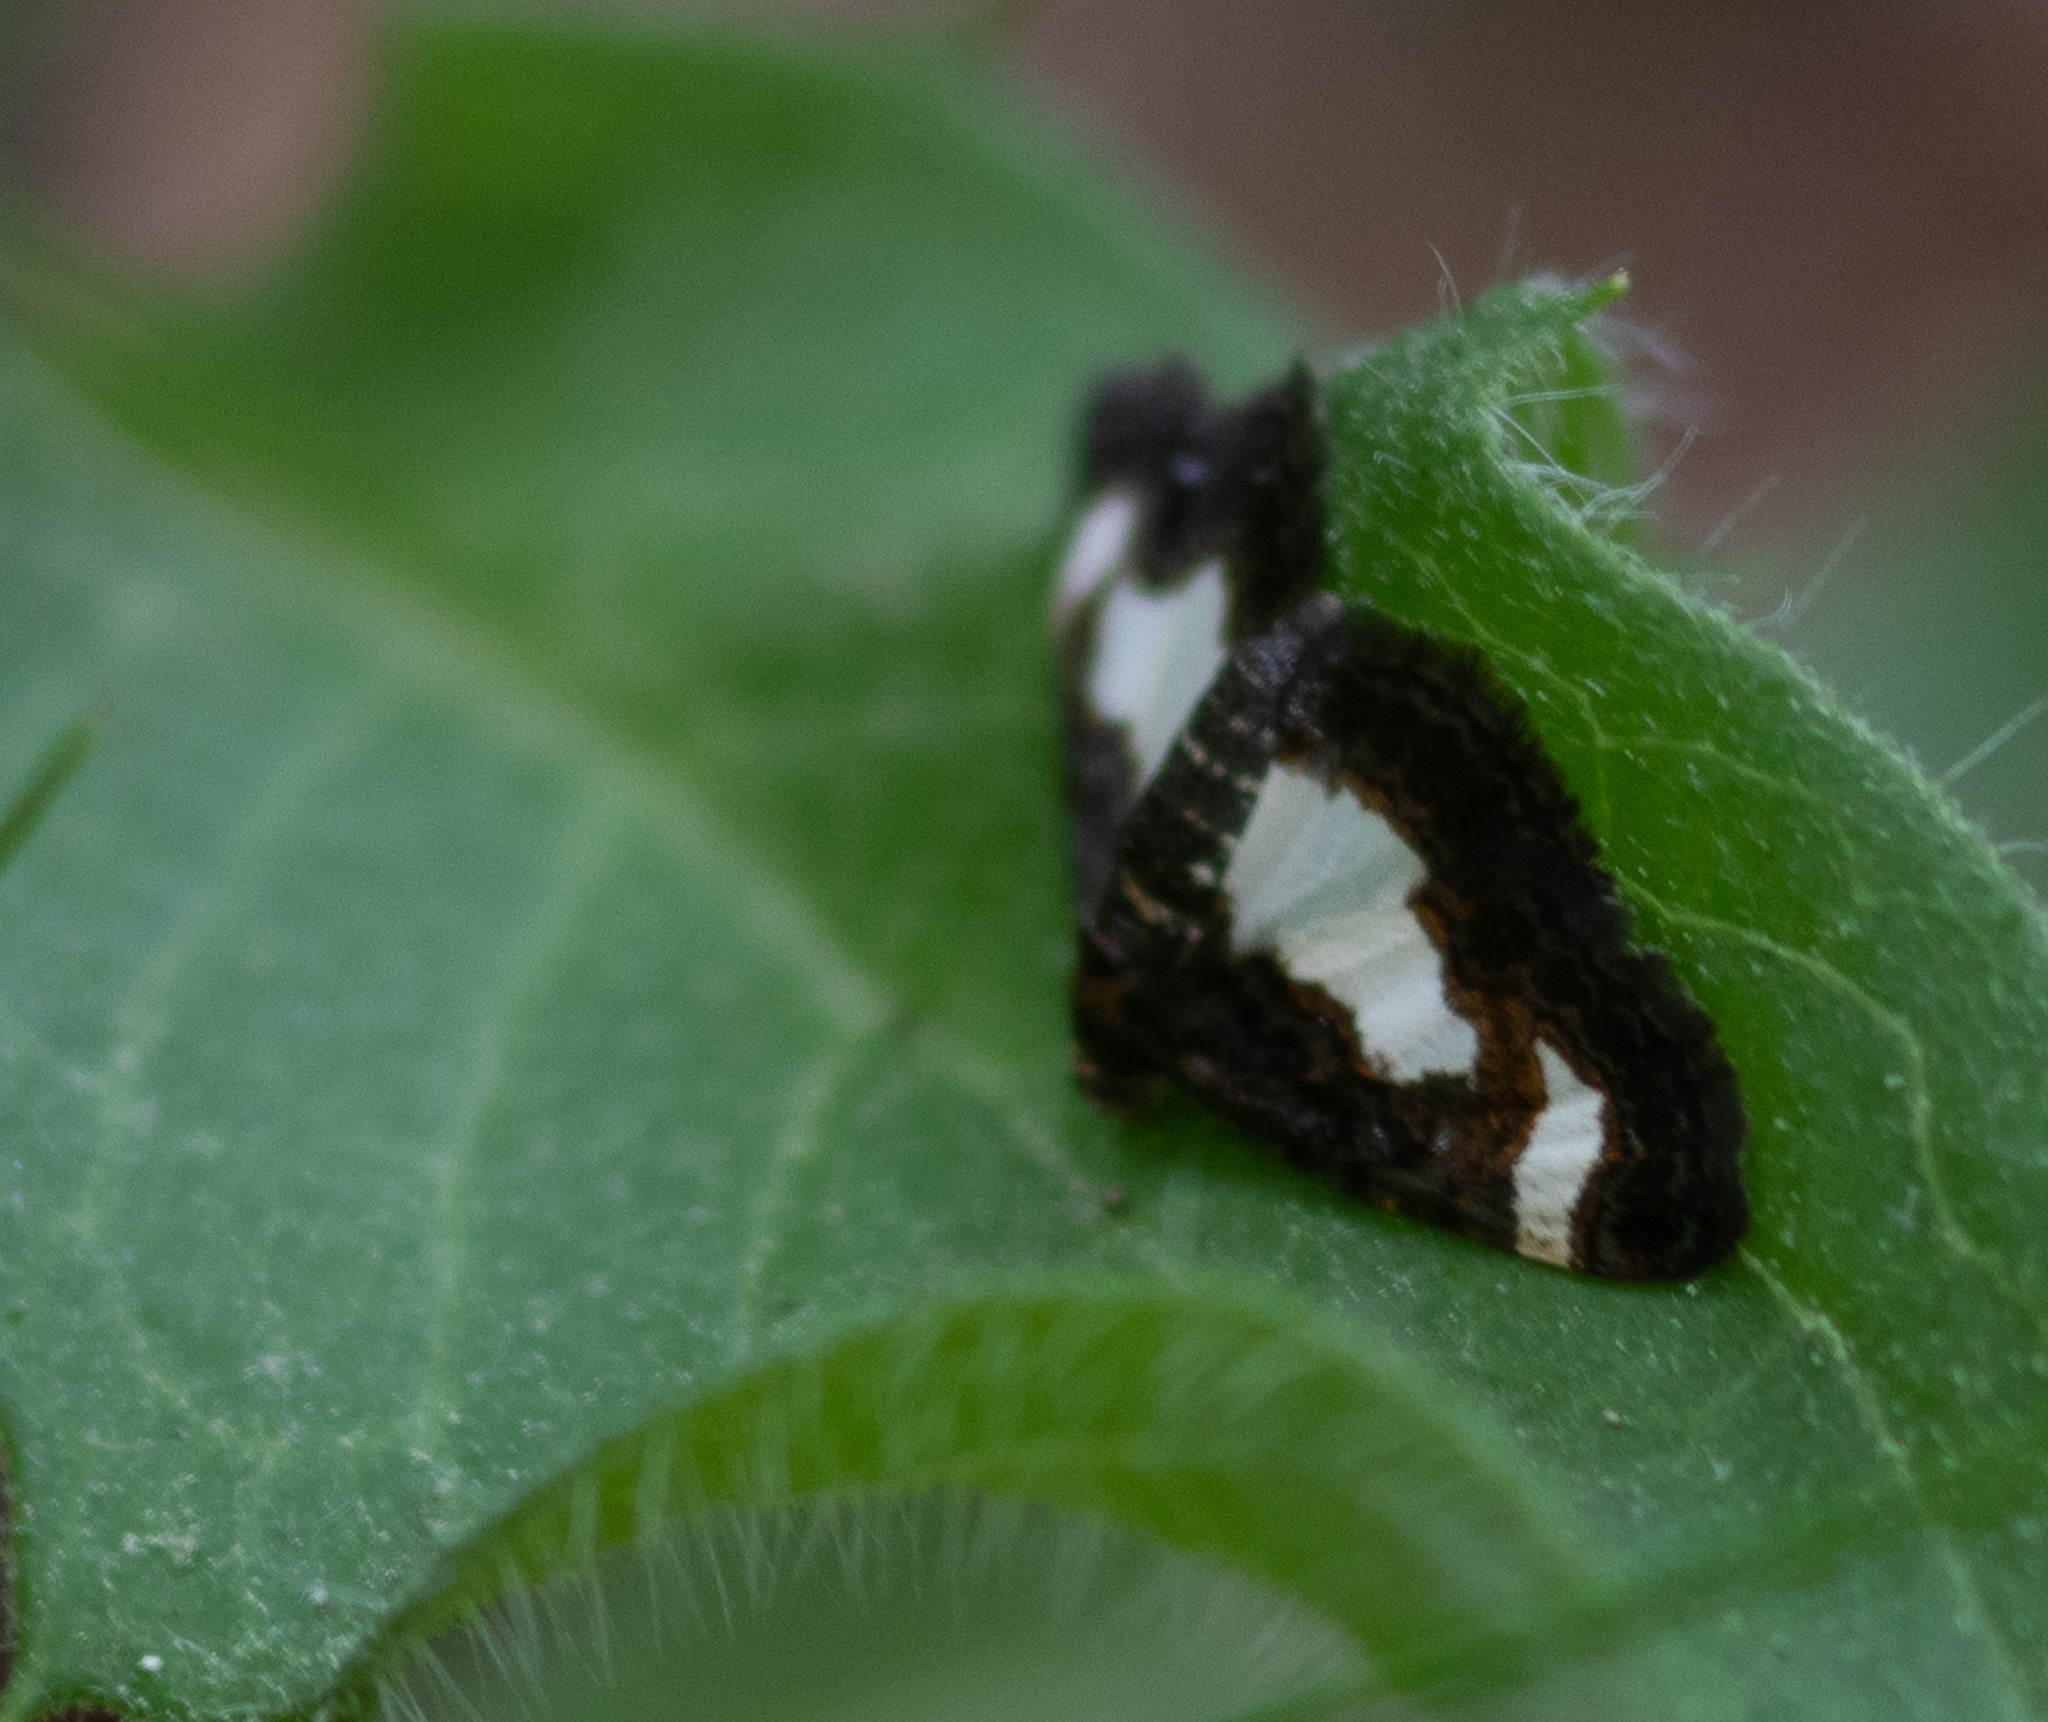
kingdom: Animalia
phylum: Arthropoda
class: Insecta
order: Lepidoptera
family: Geometridae
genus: Heliomata
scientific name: Heliomata cycladata
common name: Common spring moth
